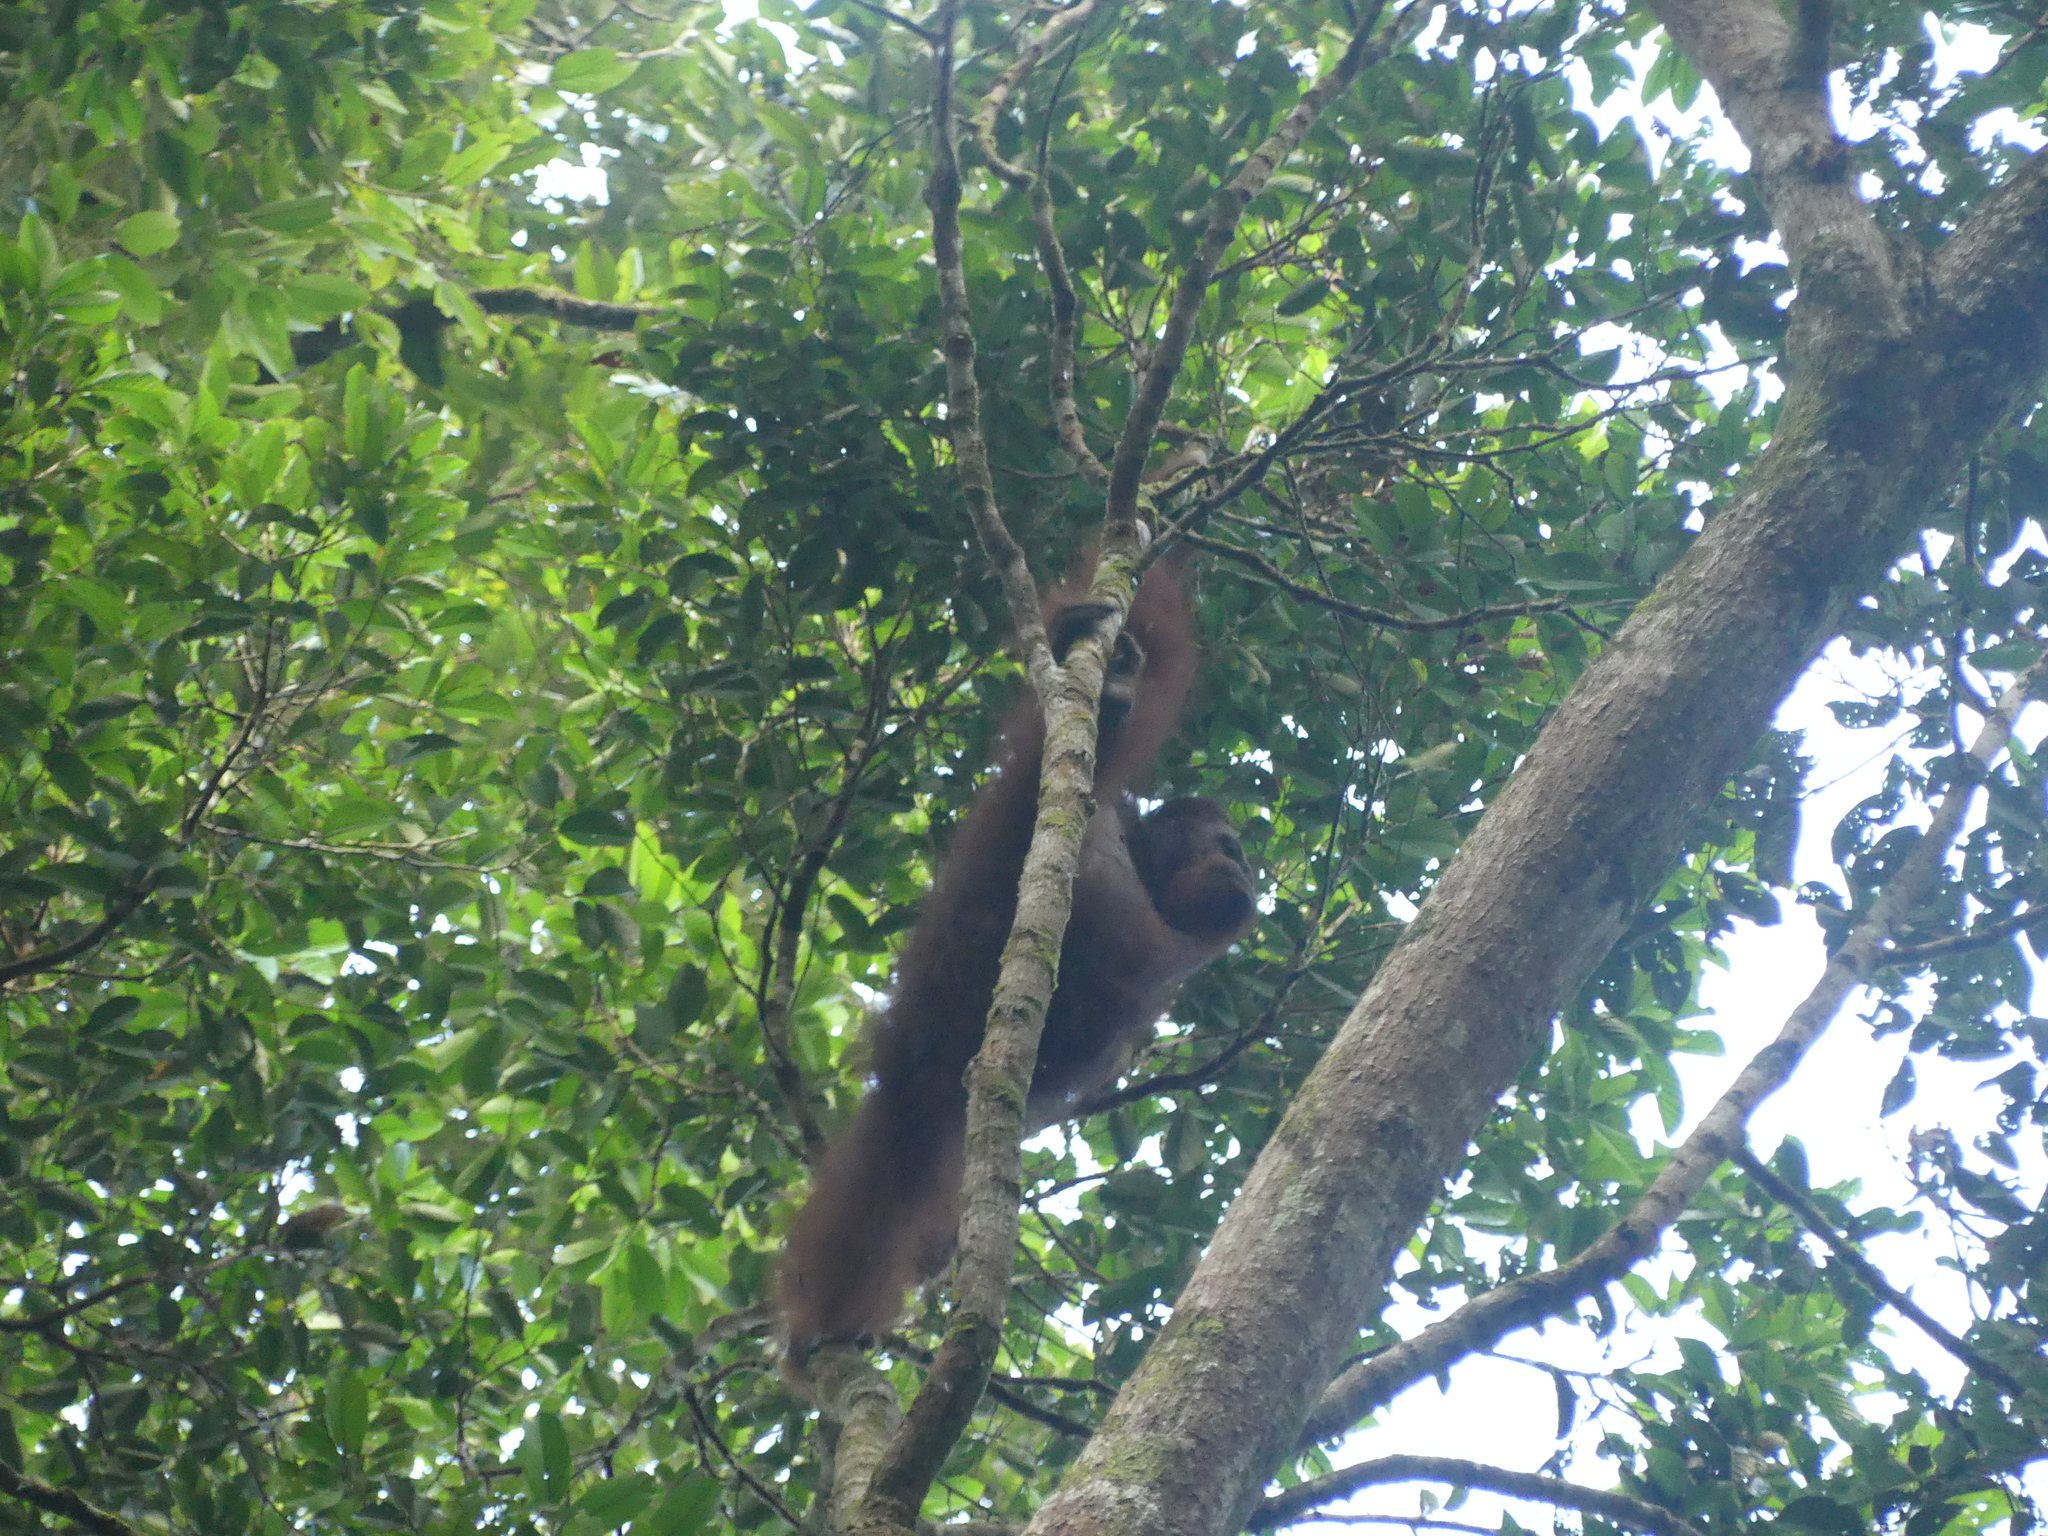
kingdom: Animalia
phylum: Chordata
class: Mammalia
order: Primates
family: Hominidae
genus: Pongo
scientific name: Pongo pygmaeus
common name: Bornean orangutan
